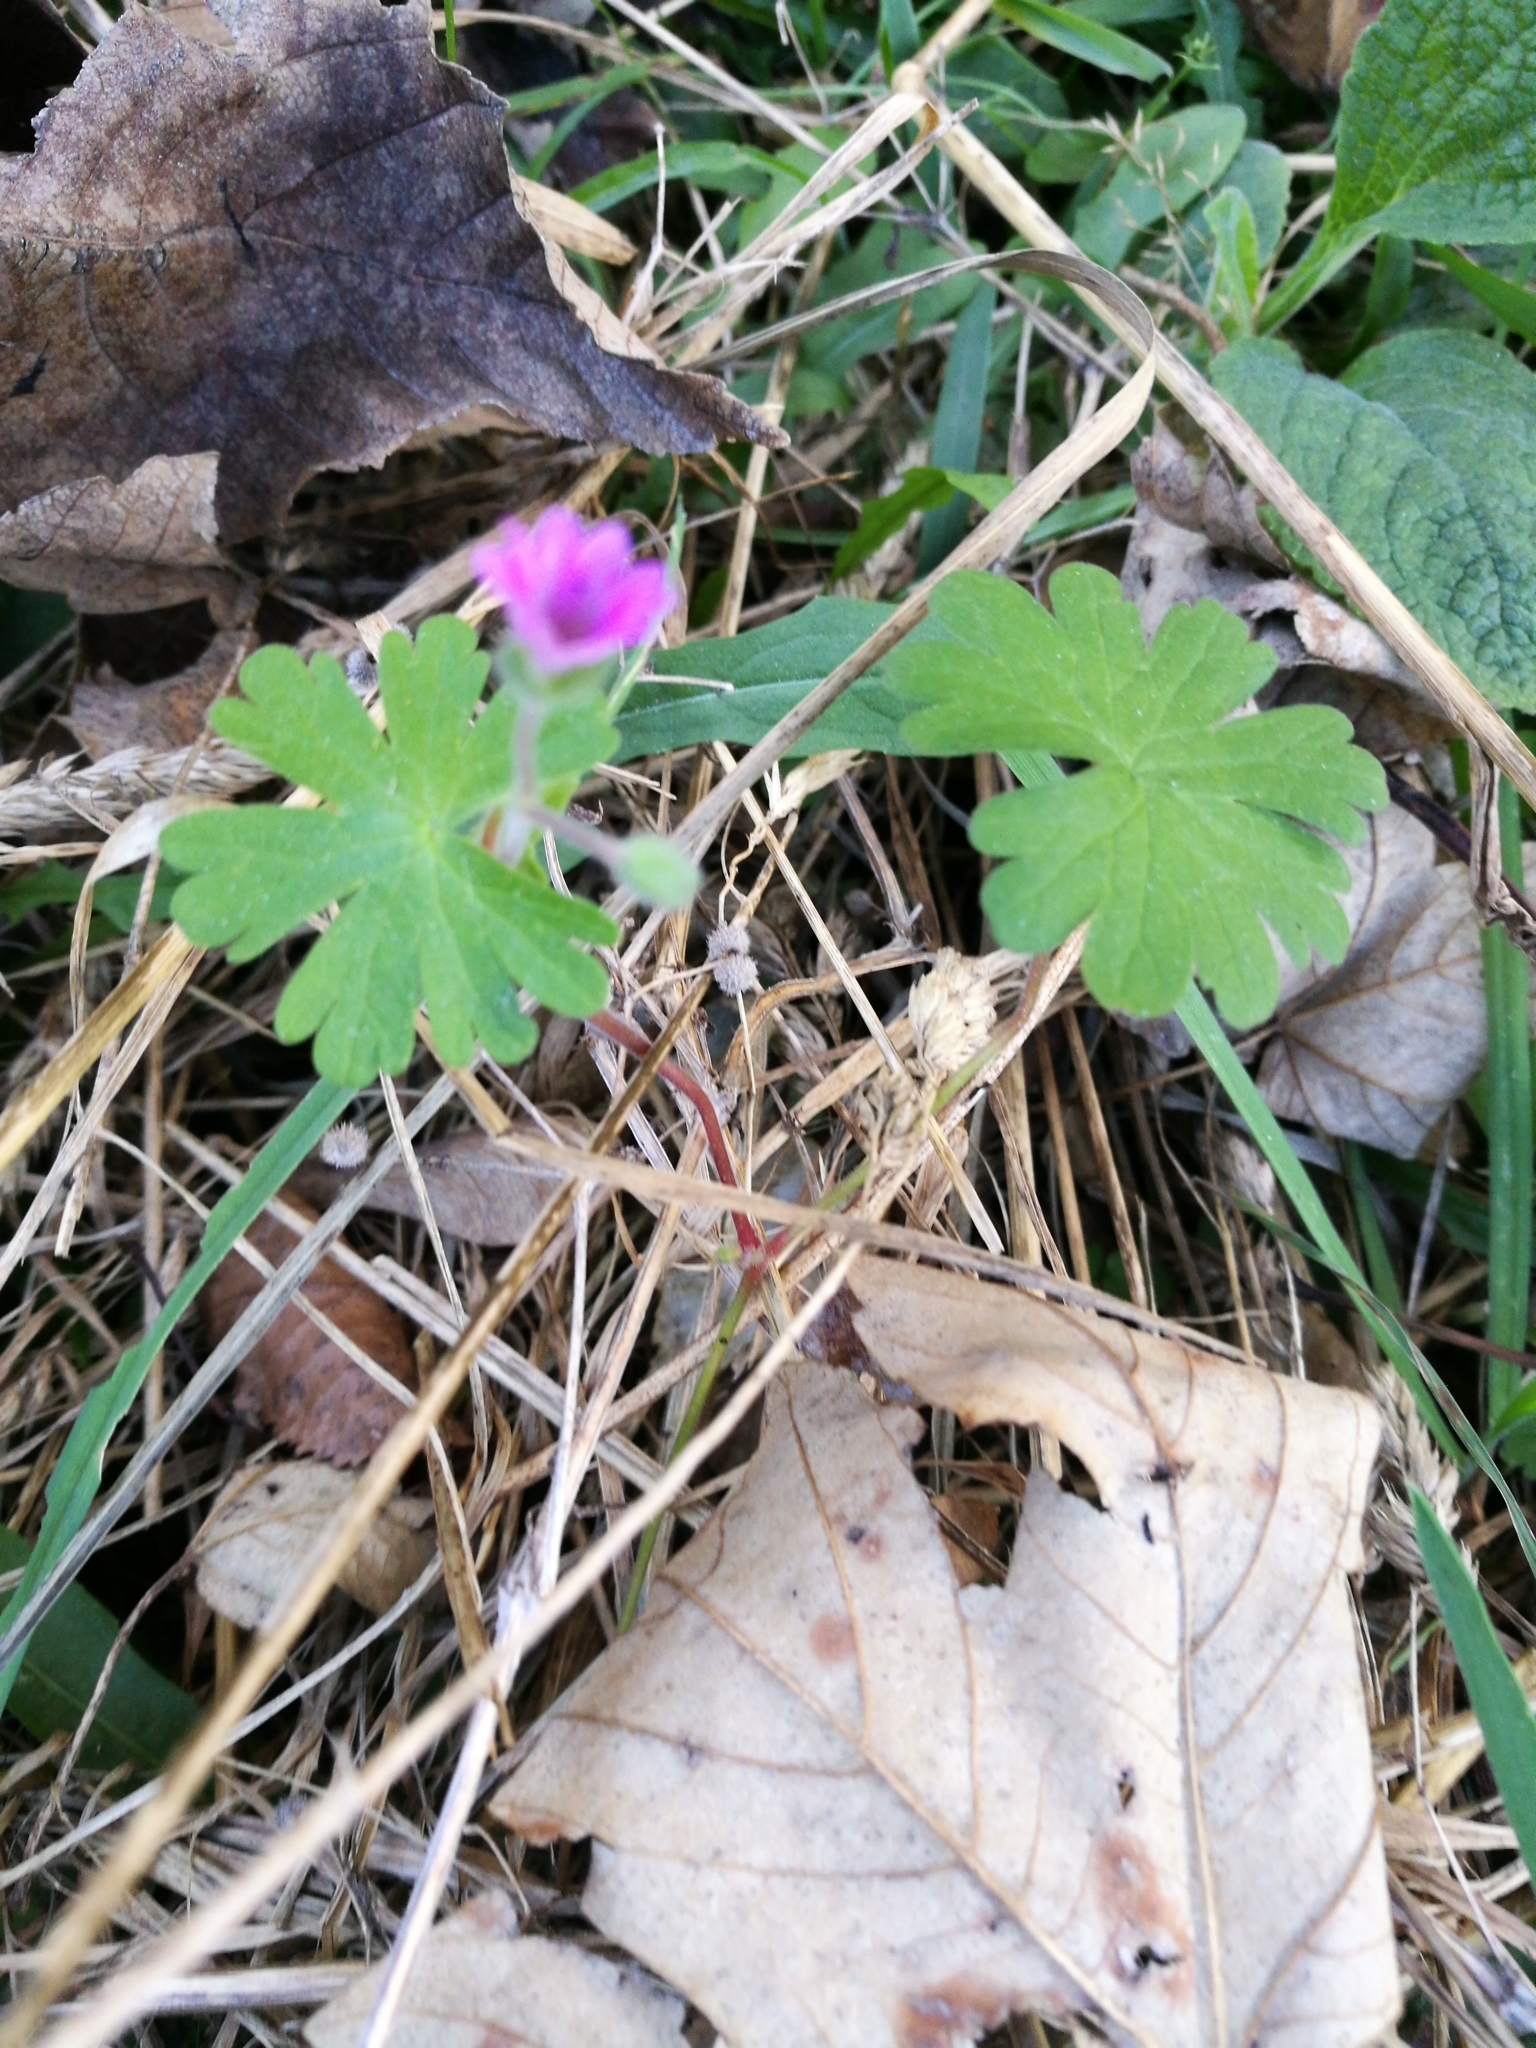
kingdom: Plantae
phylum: Tracheophyta
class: Magnoliopsida
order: Geraniales
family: Geraniaceae
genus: Geranium
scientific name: Geranium molle
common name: Dove's-foot crane's-bill
